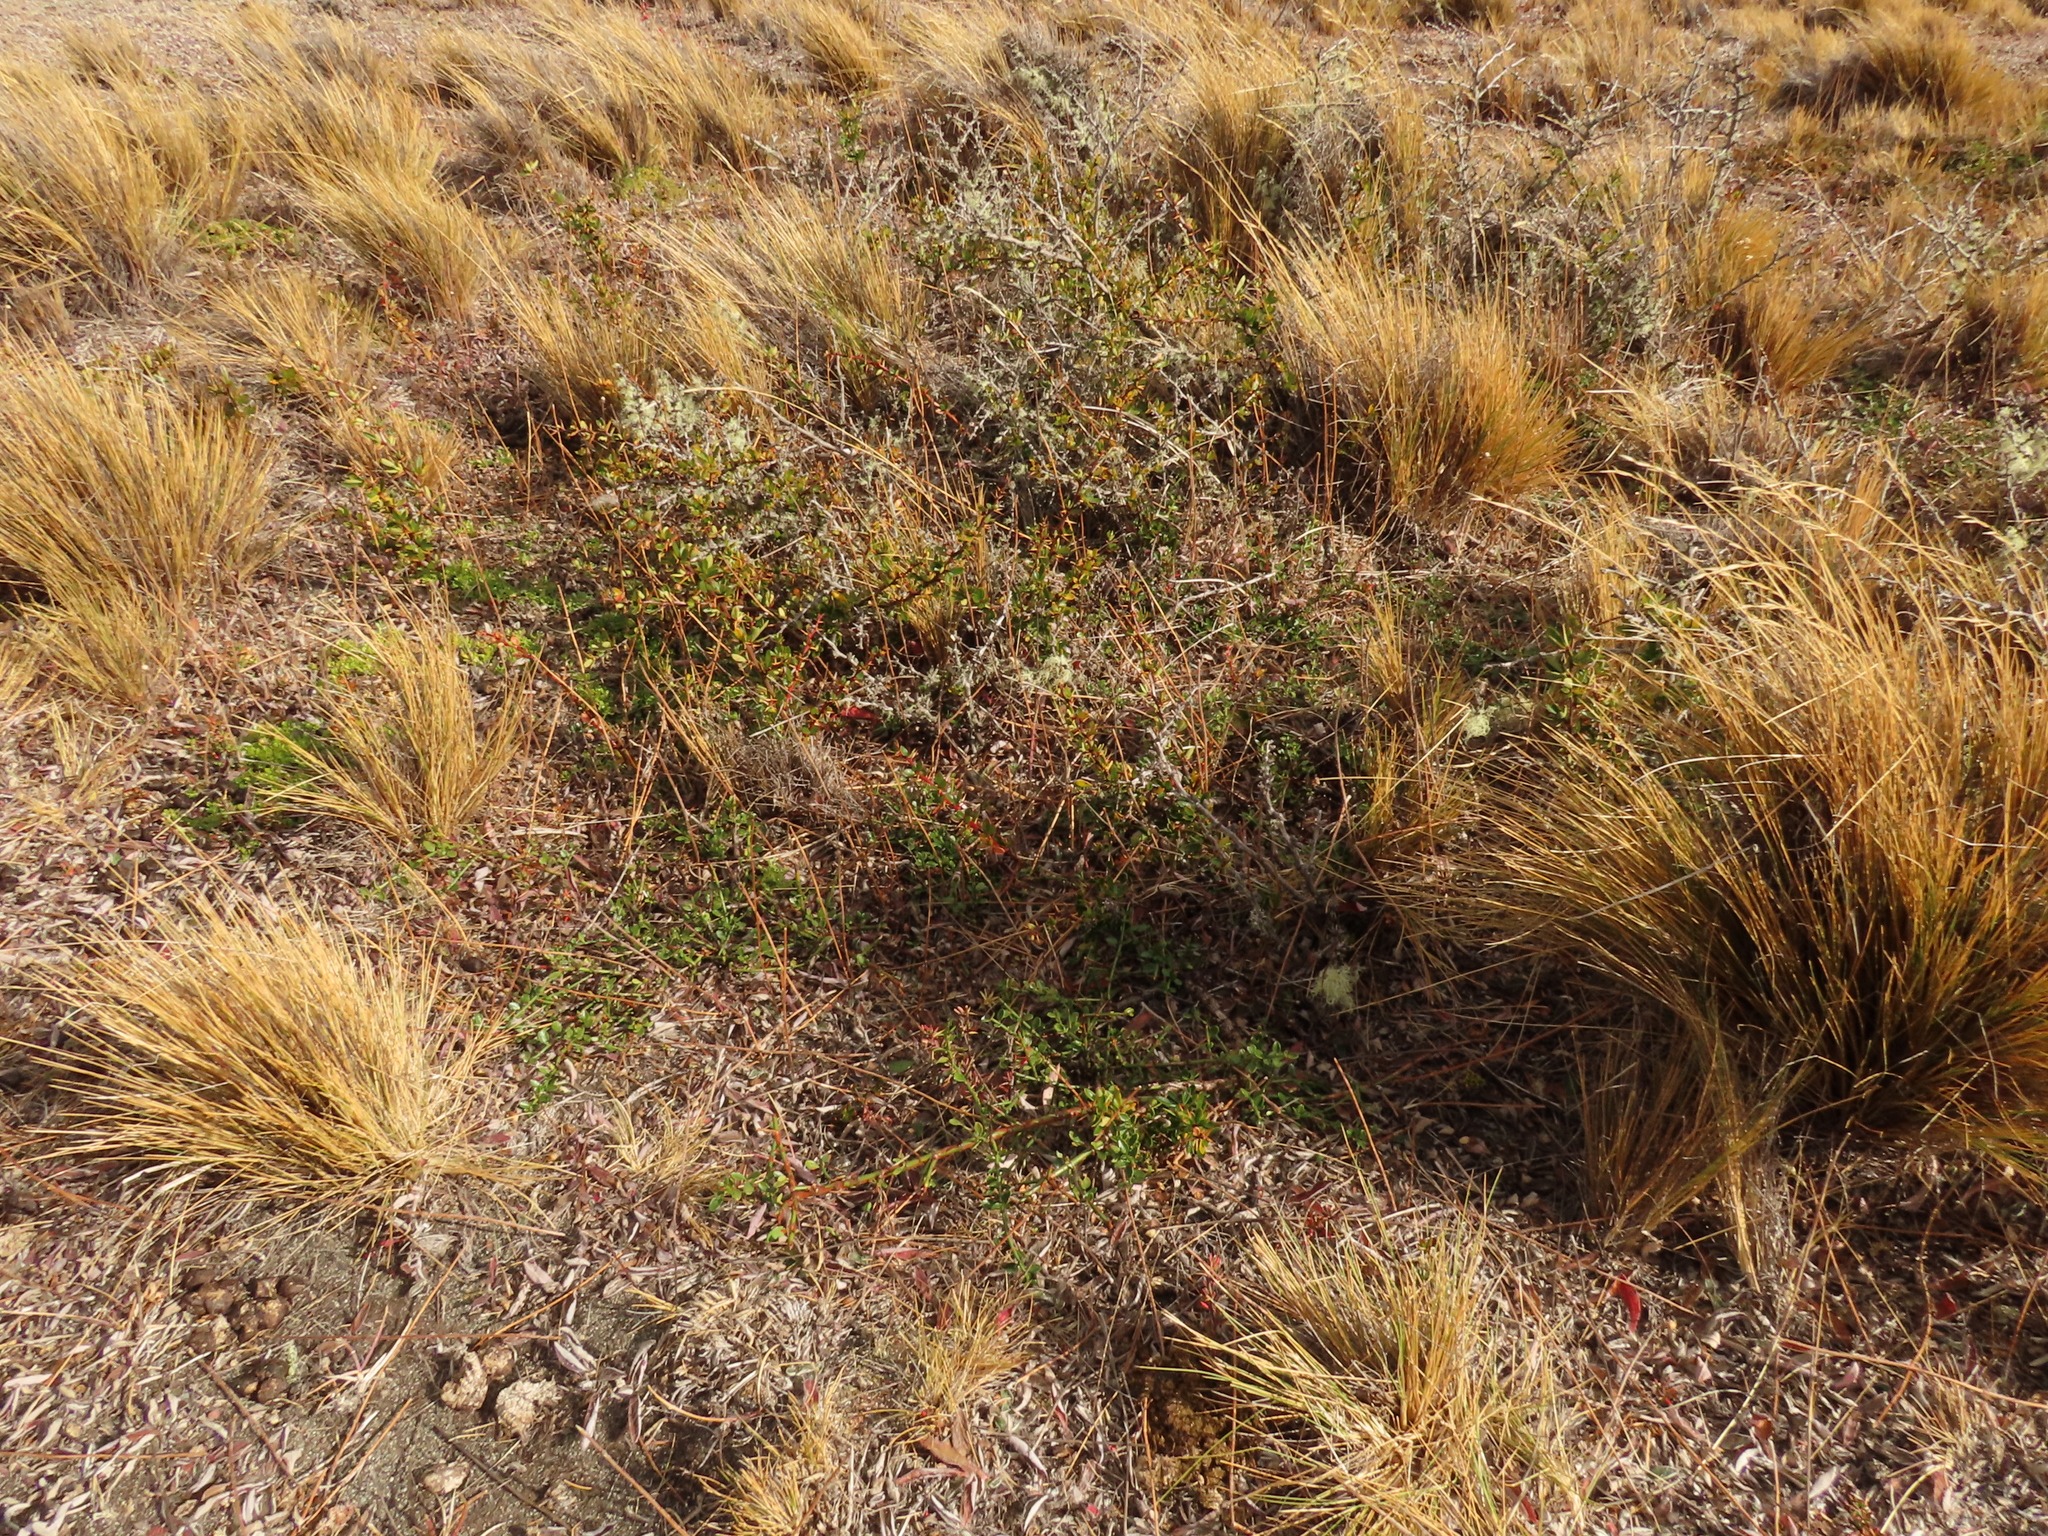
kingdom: Plantae
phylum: Tracheophyta
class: Magnoliopsida
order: Rosales
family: Rhamnaceae
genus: Discaria
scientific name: Discaria chacaye
